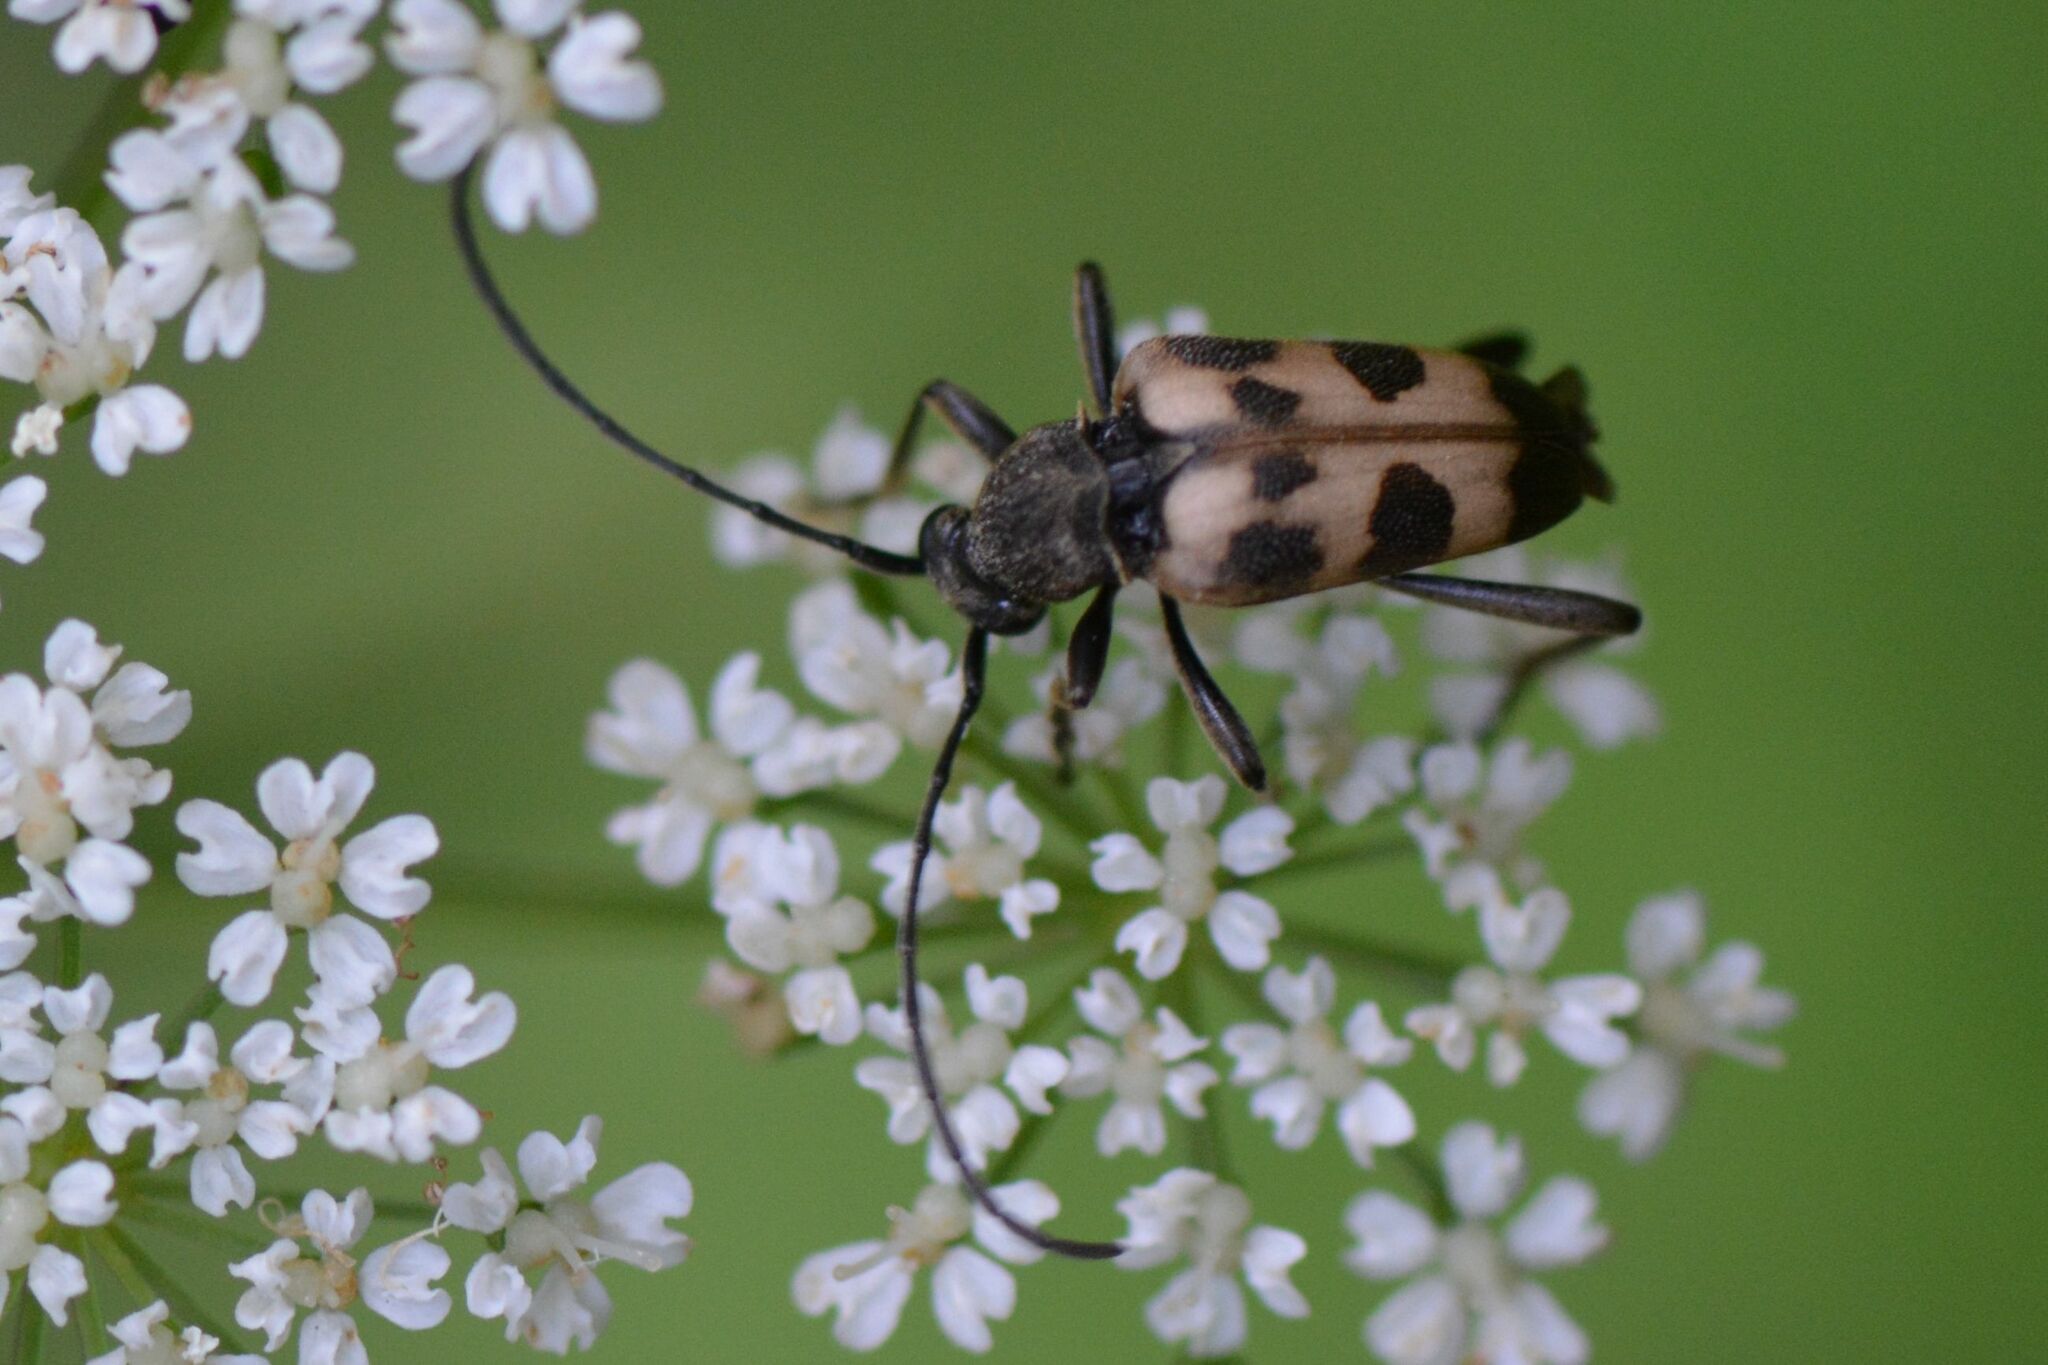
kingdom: Animalia
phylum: Arthropoda
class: Insecta
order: Coleoptera
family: Cerambycidae
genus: Pachytodes
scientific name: Pachytodes cerambyciformis
